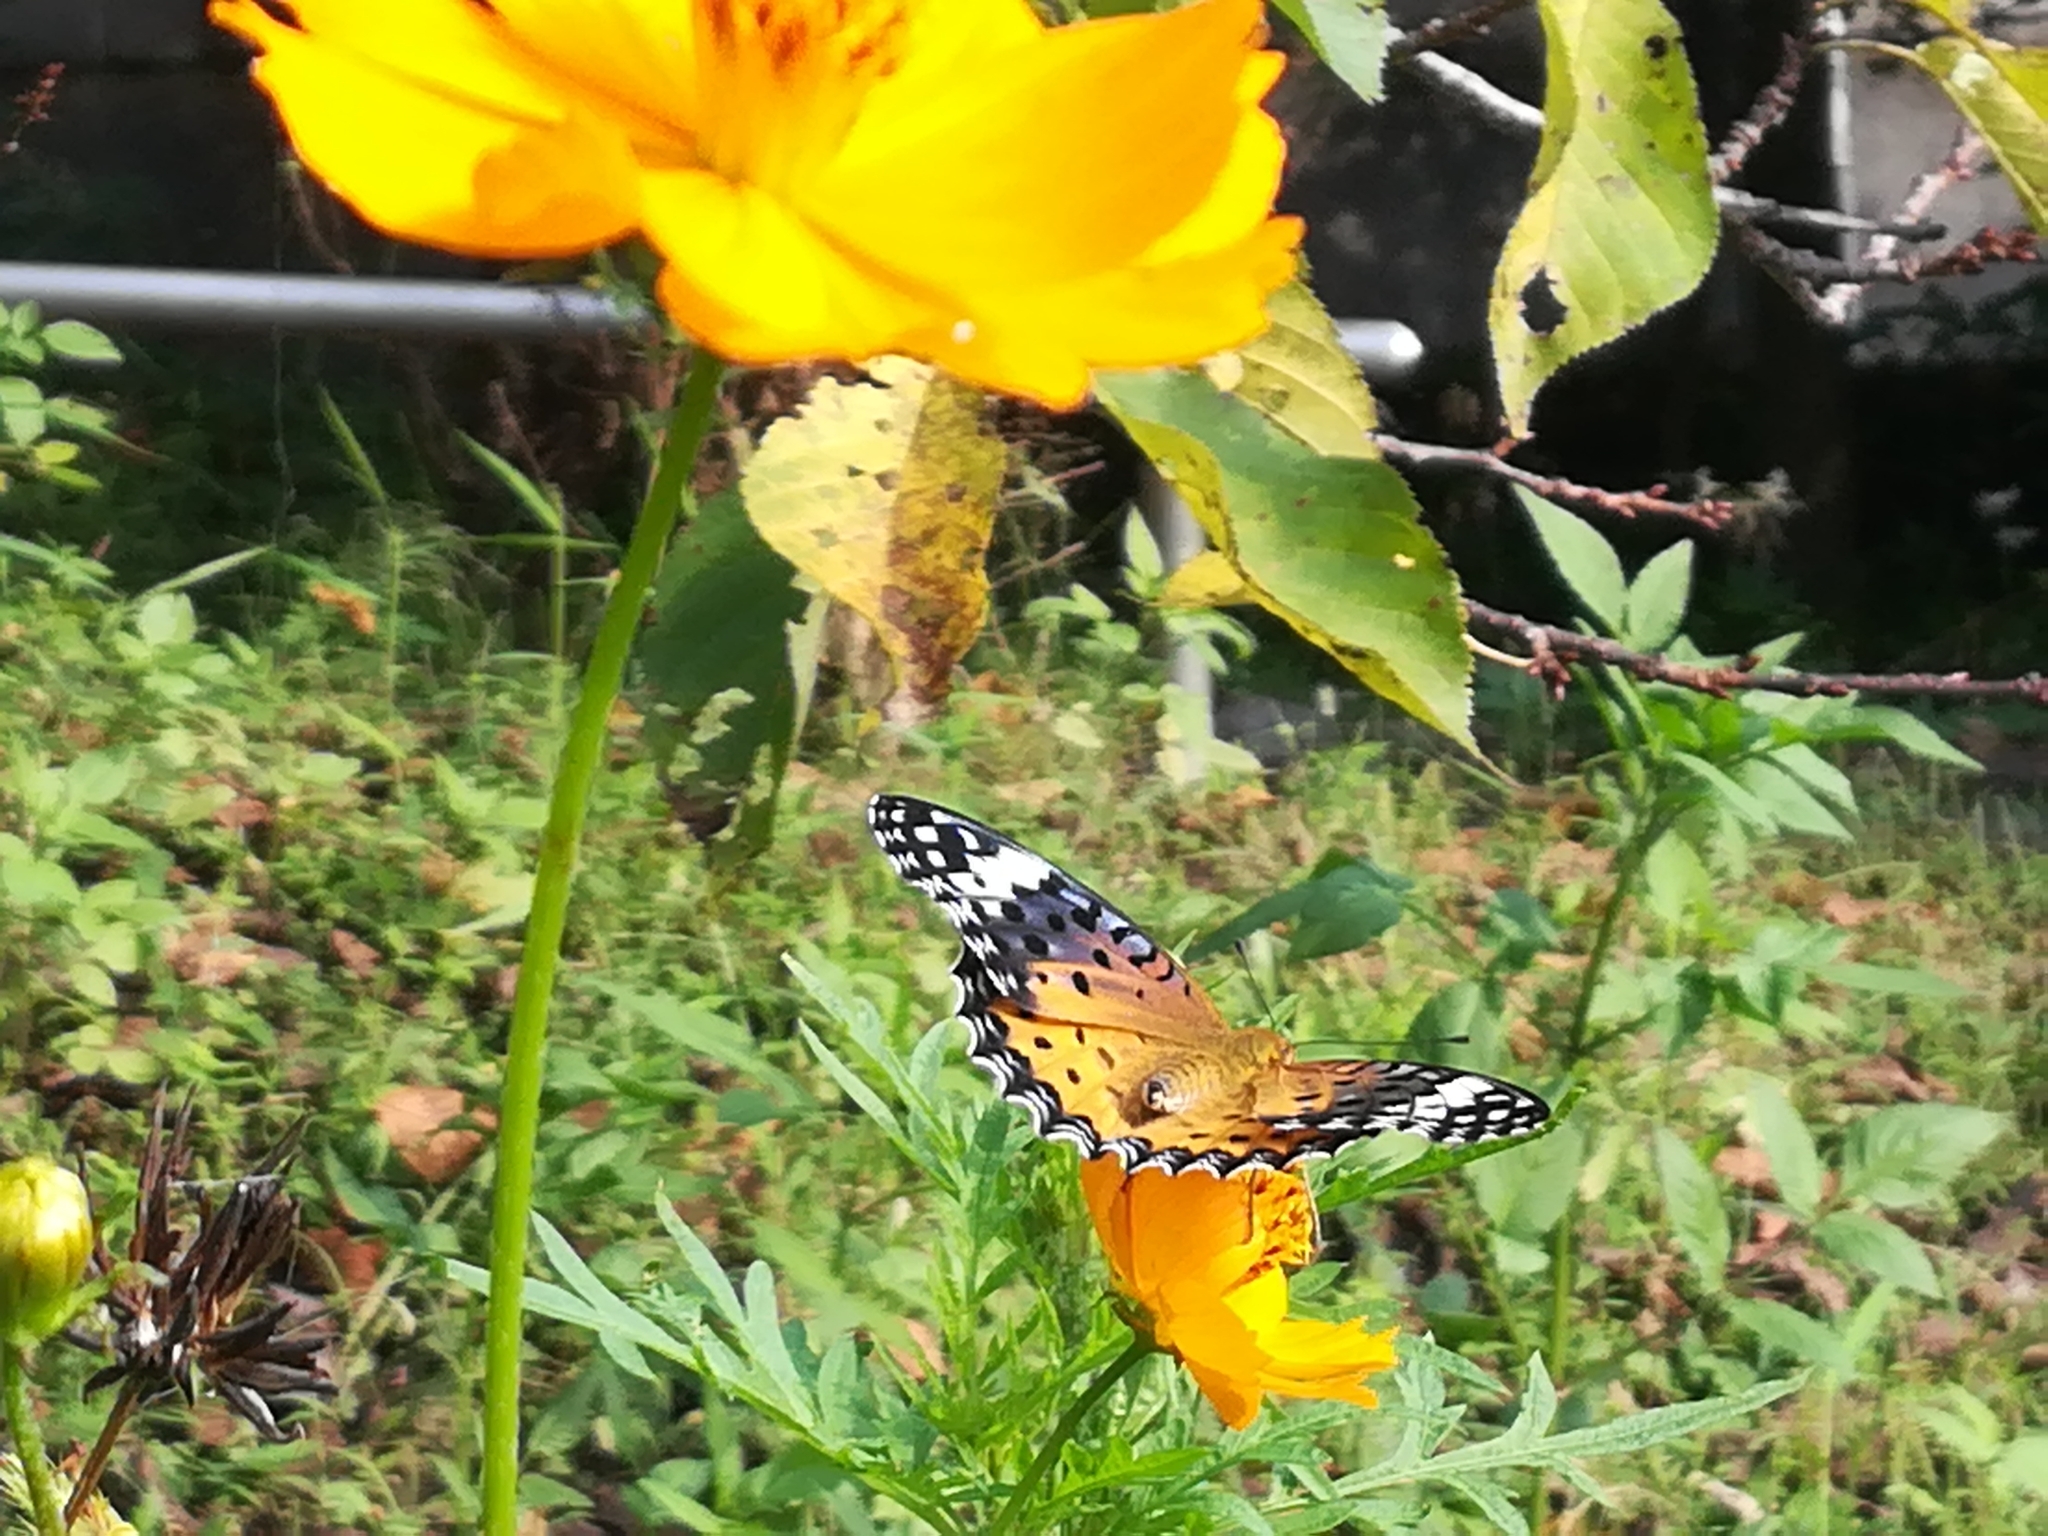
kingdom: Animalia
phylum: Arthropoda
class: Insecta
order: Lepidoptera
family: Nymphalidae
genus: Argynnis
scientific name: Argynnis hyperbius
